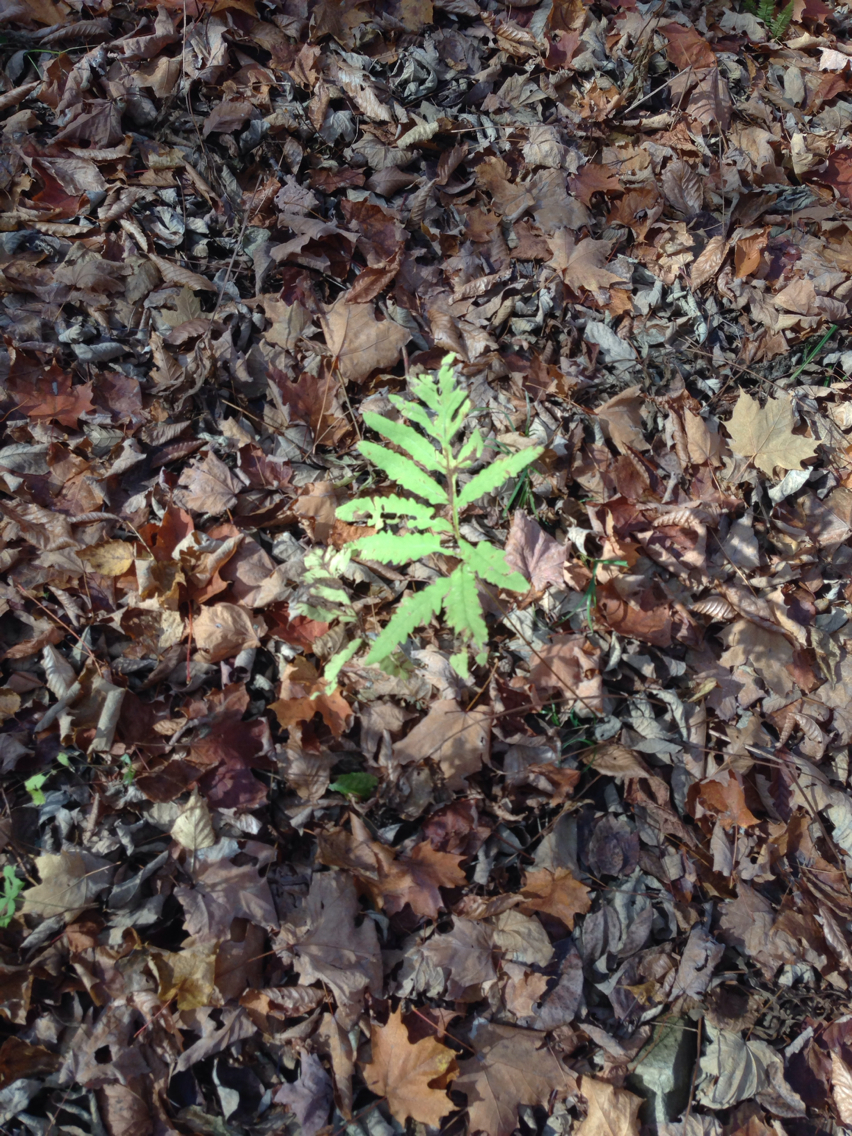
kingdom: Plantae
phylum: Tracheophyta
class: Polypodiopsida
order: Polypodiales
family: Onocleaceae
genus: Onoclea
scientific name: Onoclea sensibilis
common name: Sensitive fern
